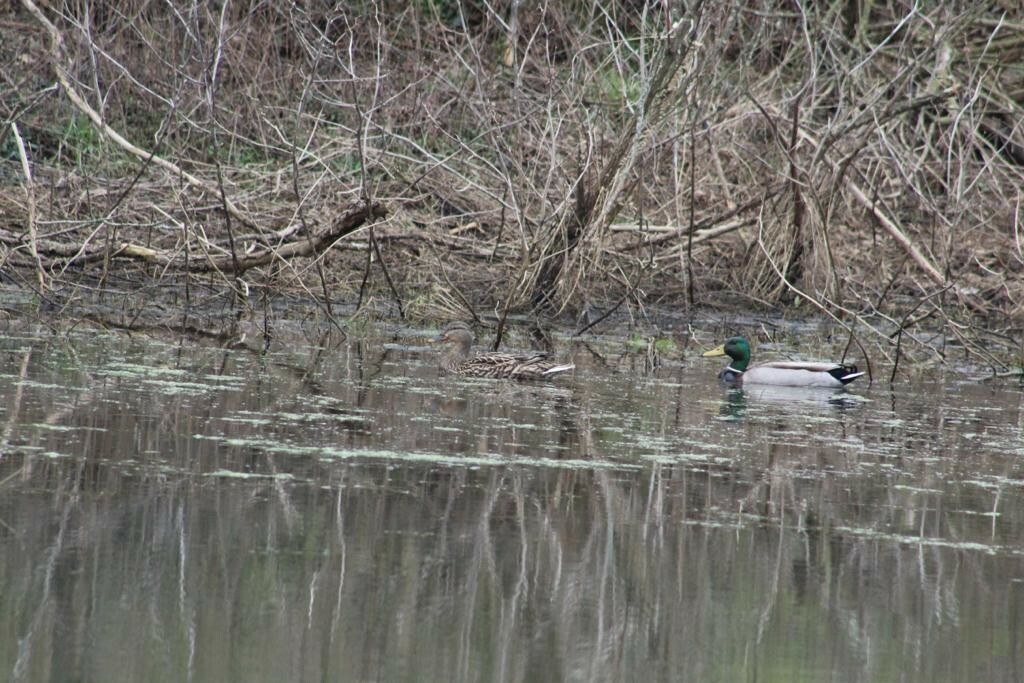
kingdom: Animalia
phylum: Chordata
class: Aves
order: Anseriformes
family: Anatidae
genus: Anas
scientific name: Anas platyrhynchos
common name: Mallard
